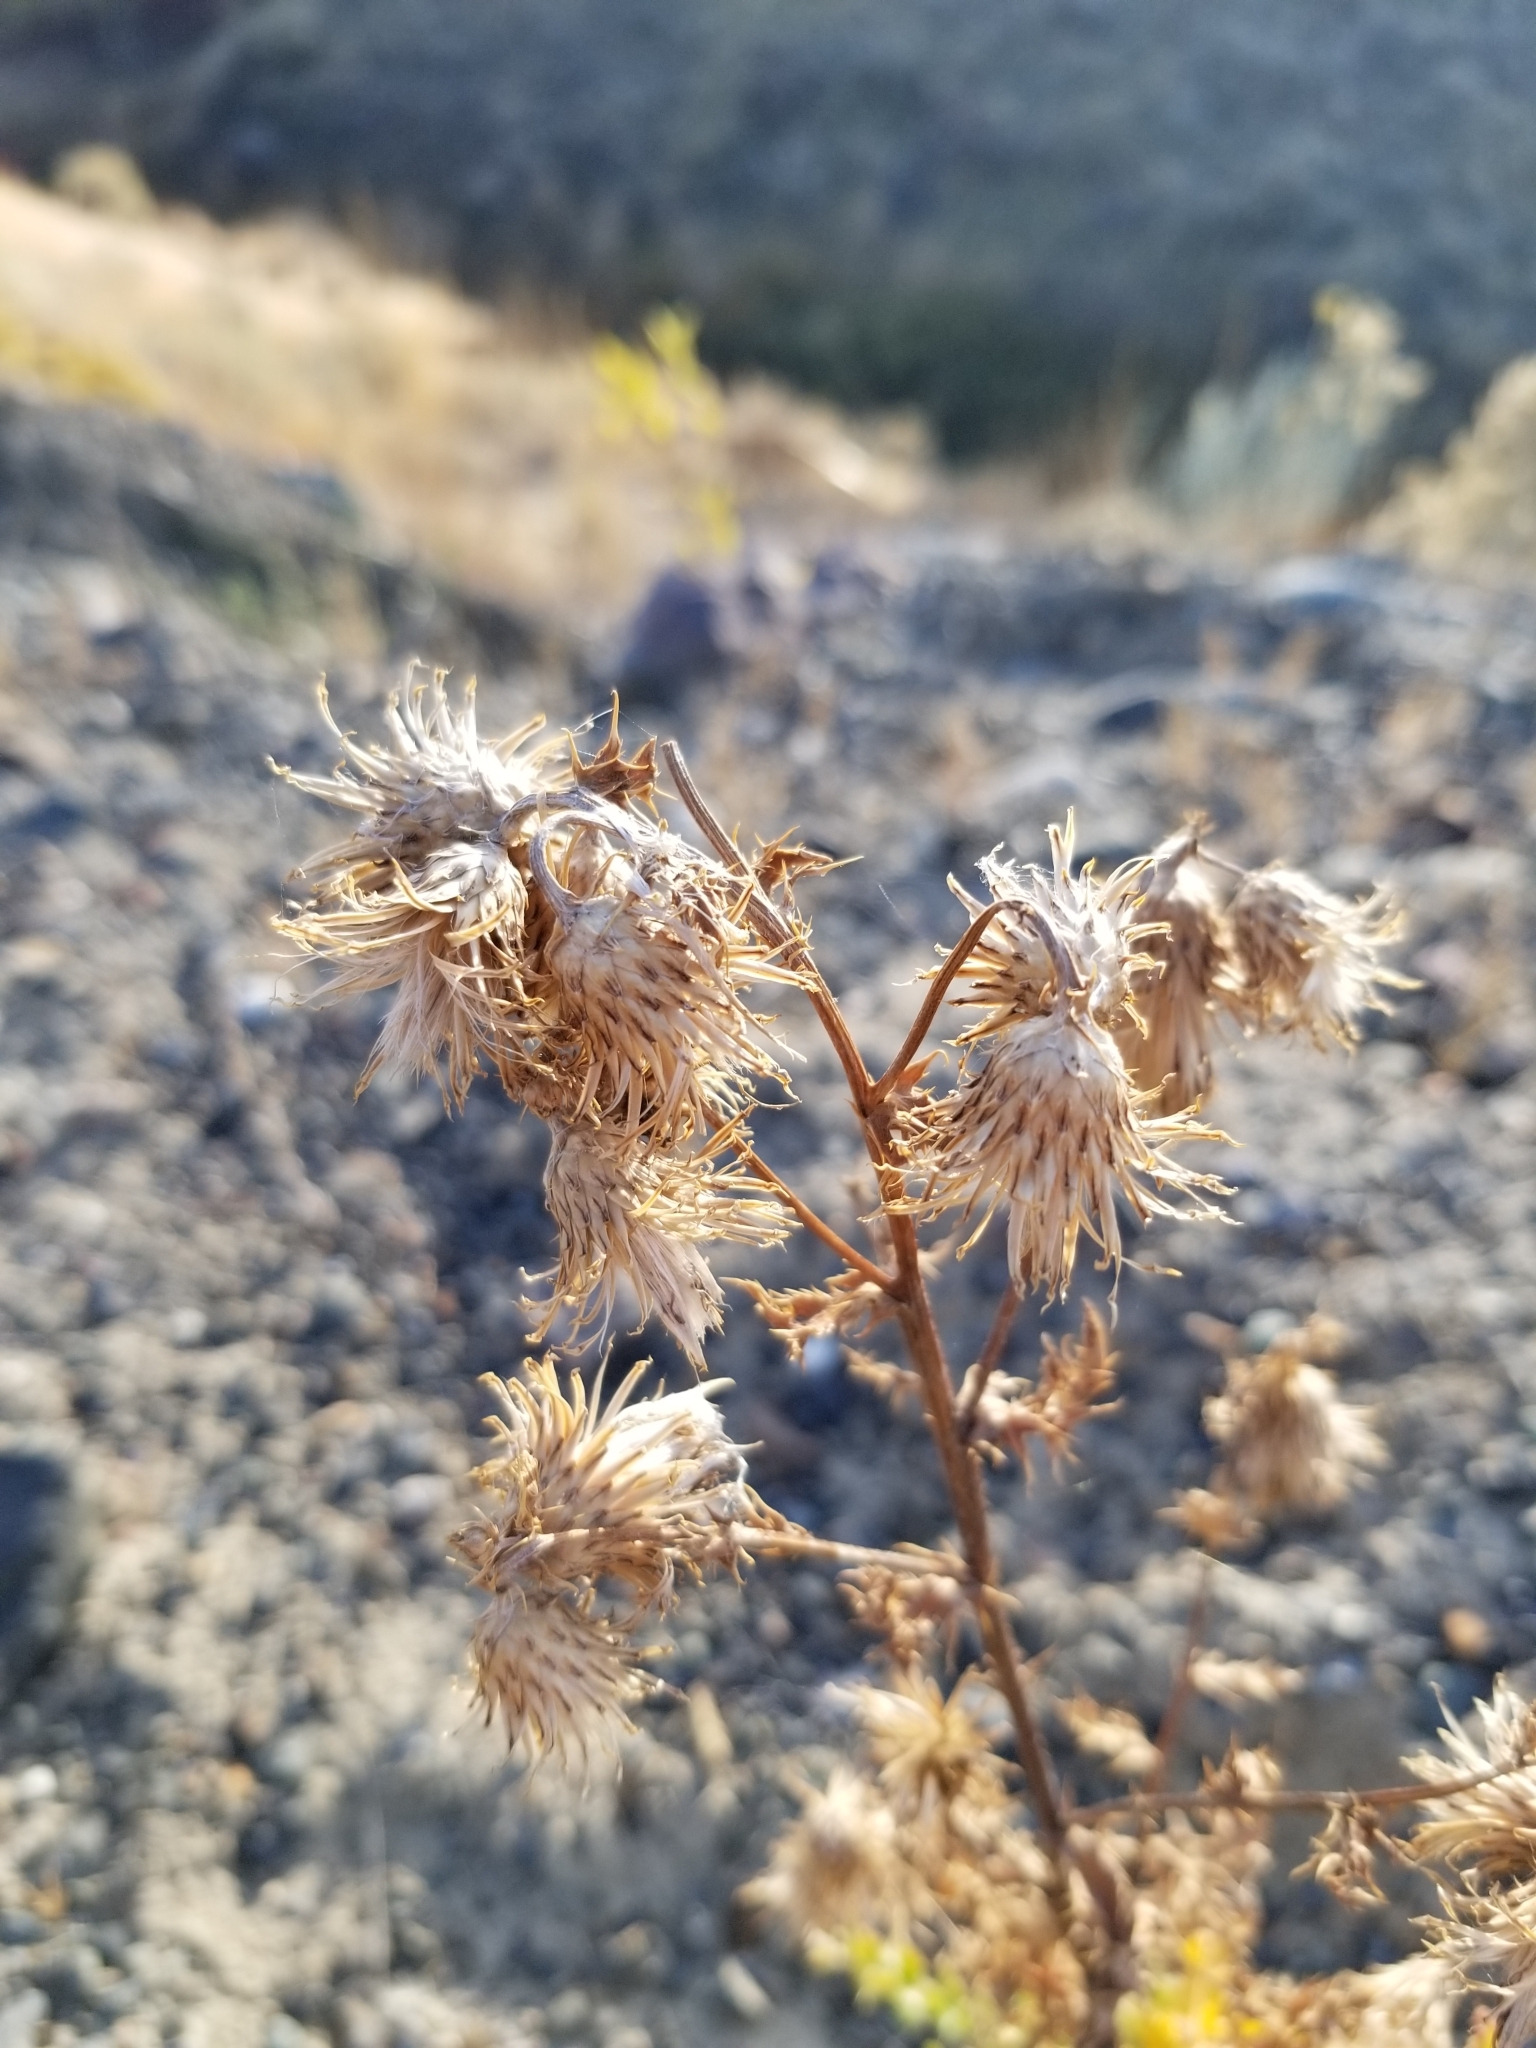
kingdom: Plantae
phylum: Tracheophyta
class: Magnoliopsida
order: Asterales
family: Asteraceae
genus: Cirsium
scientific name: Cirsium arvense
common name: Creeping thistle
